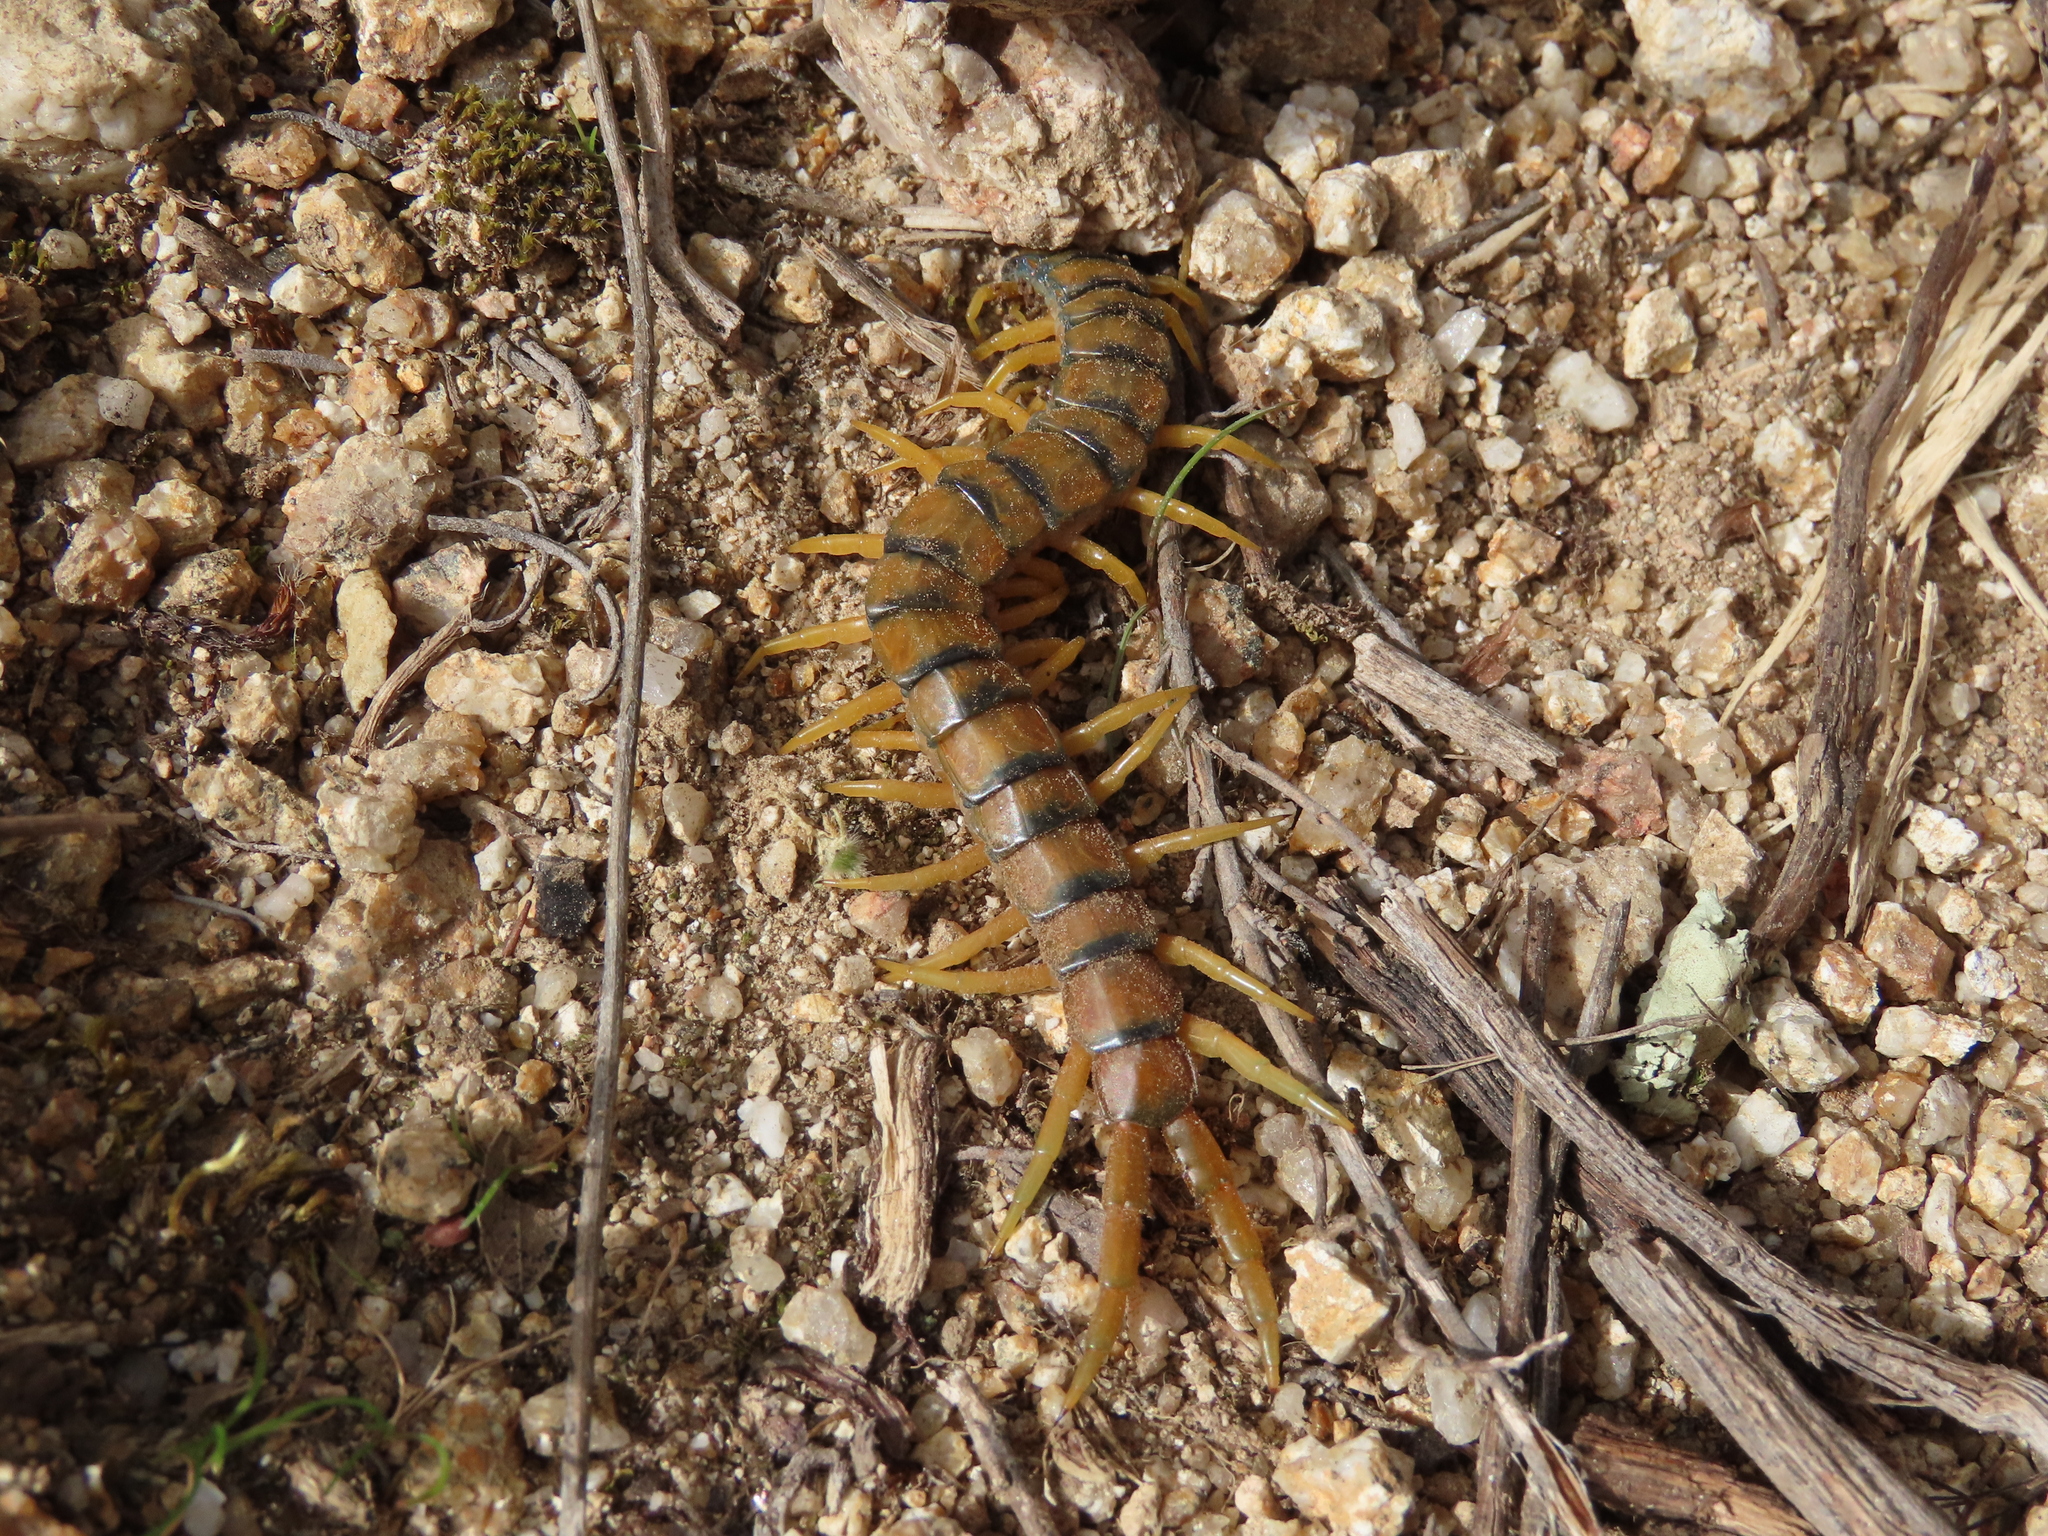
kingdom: Animalia
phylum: Arthropoda
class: Chilopoda
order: Scolopendromorpha
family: Scolopendridae
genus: Scolopendra
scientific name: Scolopendra cingulata
